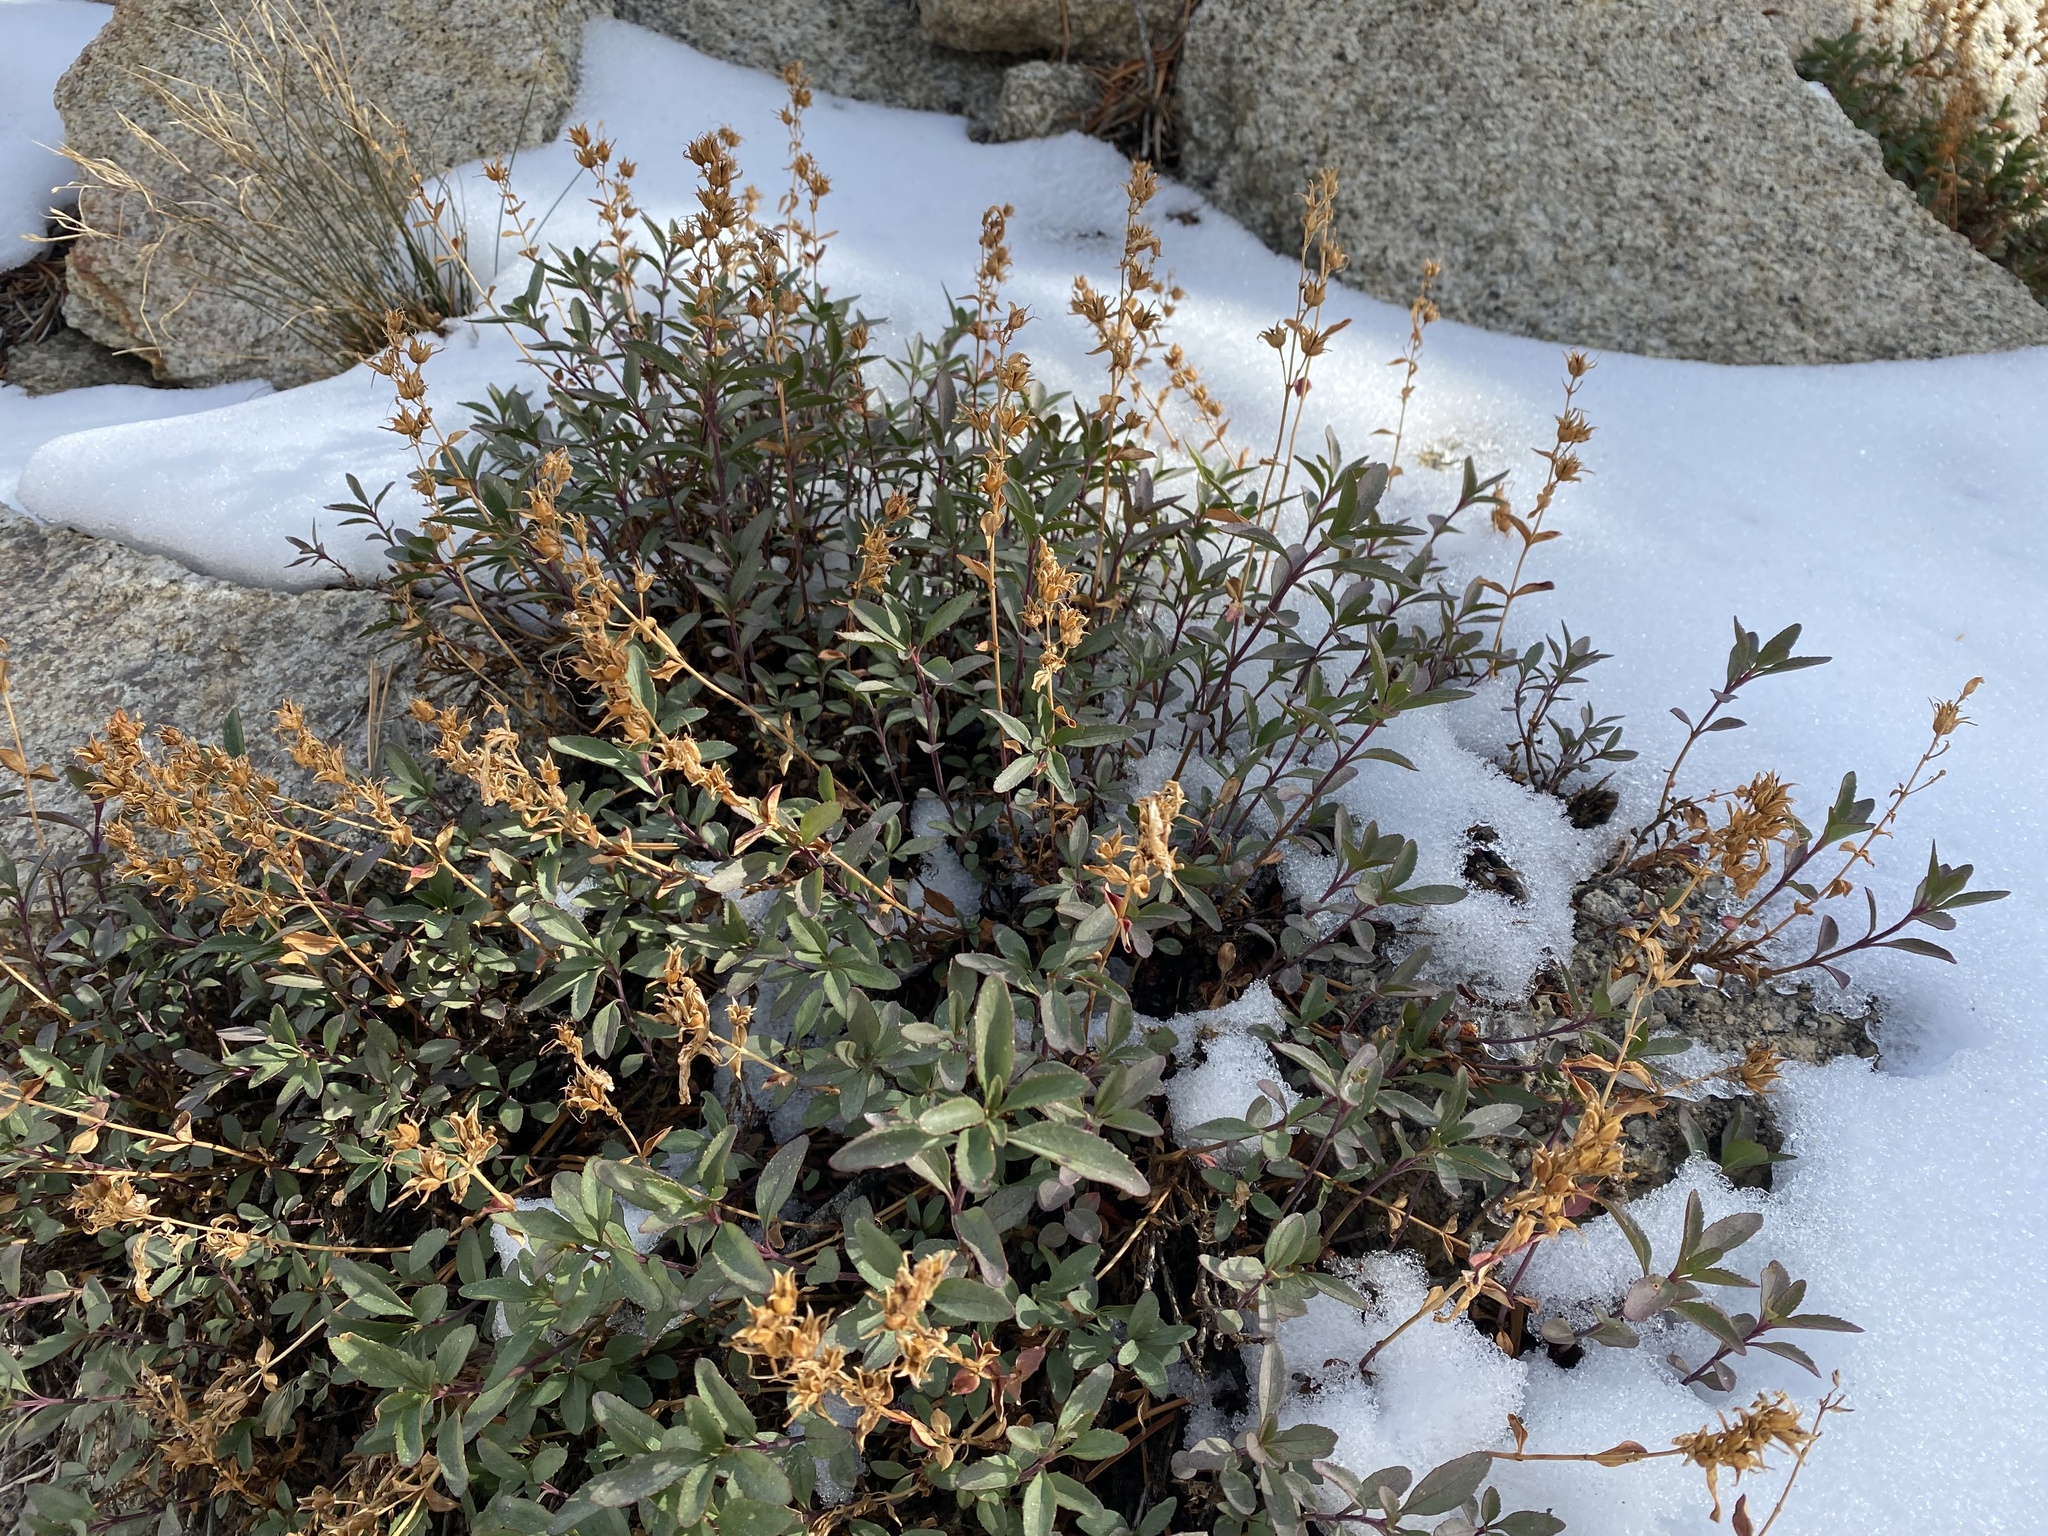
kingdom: Plantae
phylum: Tracheophyta
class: Magnoliopsida
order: Lamiales
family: Plantaginaceae
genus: Penstemon
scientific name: Penstemon newberryi
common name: Mountain-pride
